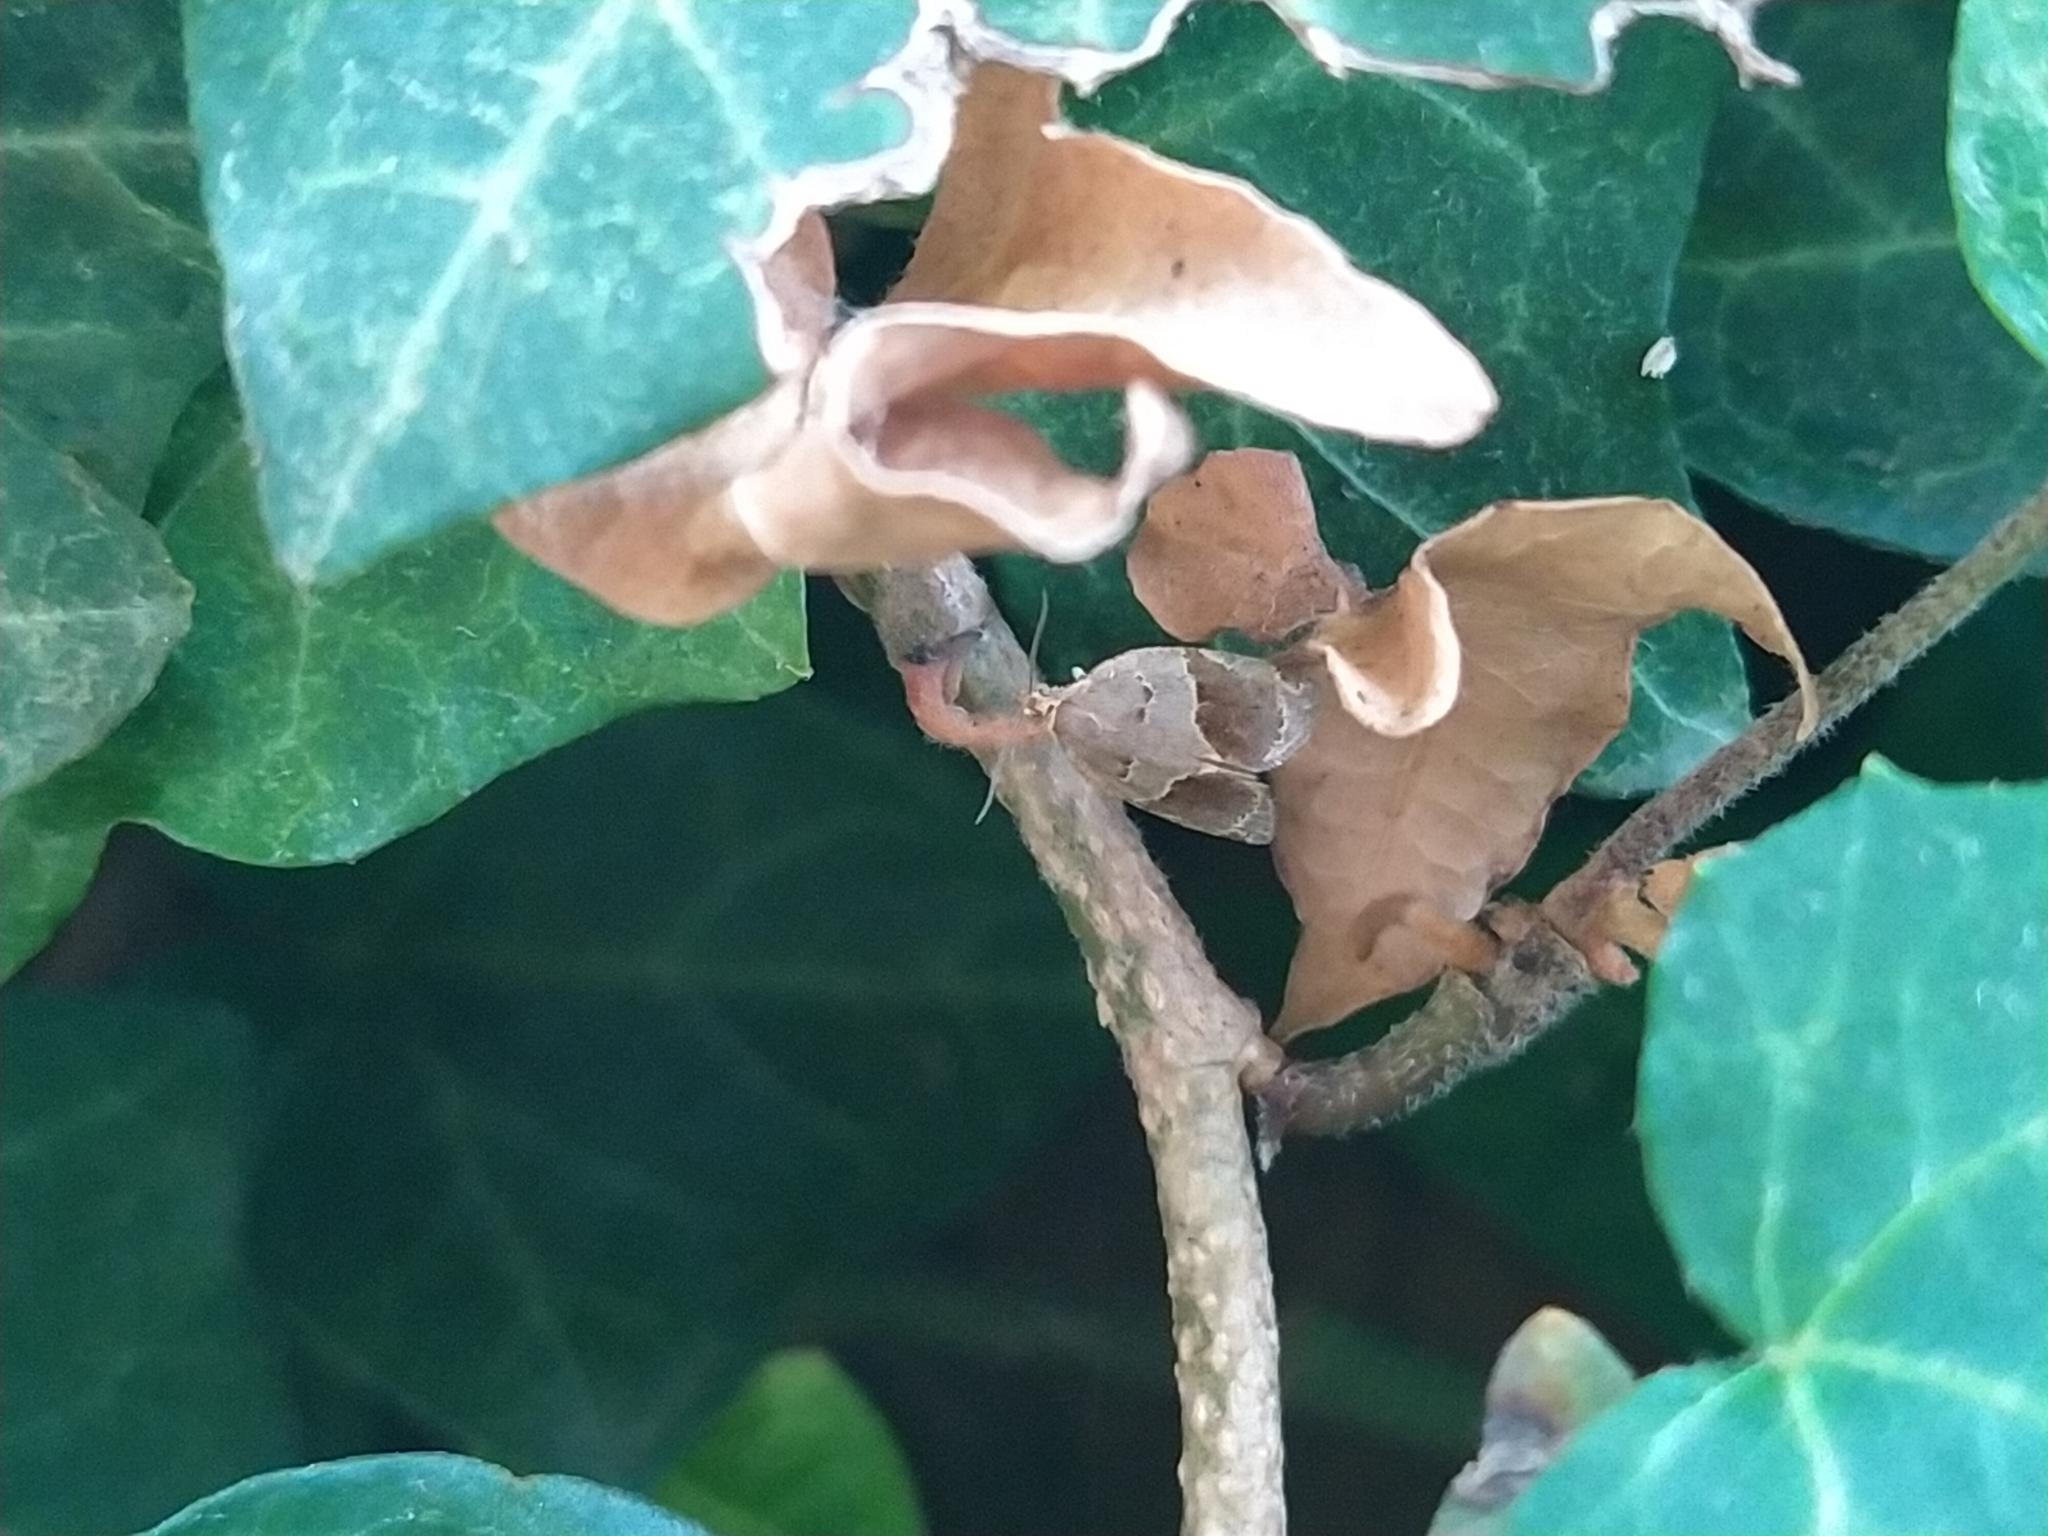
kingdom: Animalia
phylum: Arthropoda
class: Insecta
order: Lepidoptera
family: Tortricidae
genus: Clepsis
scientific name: Clepsis dumicolana
